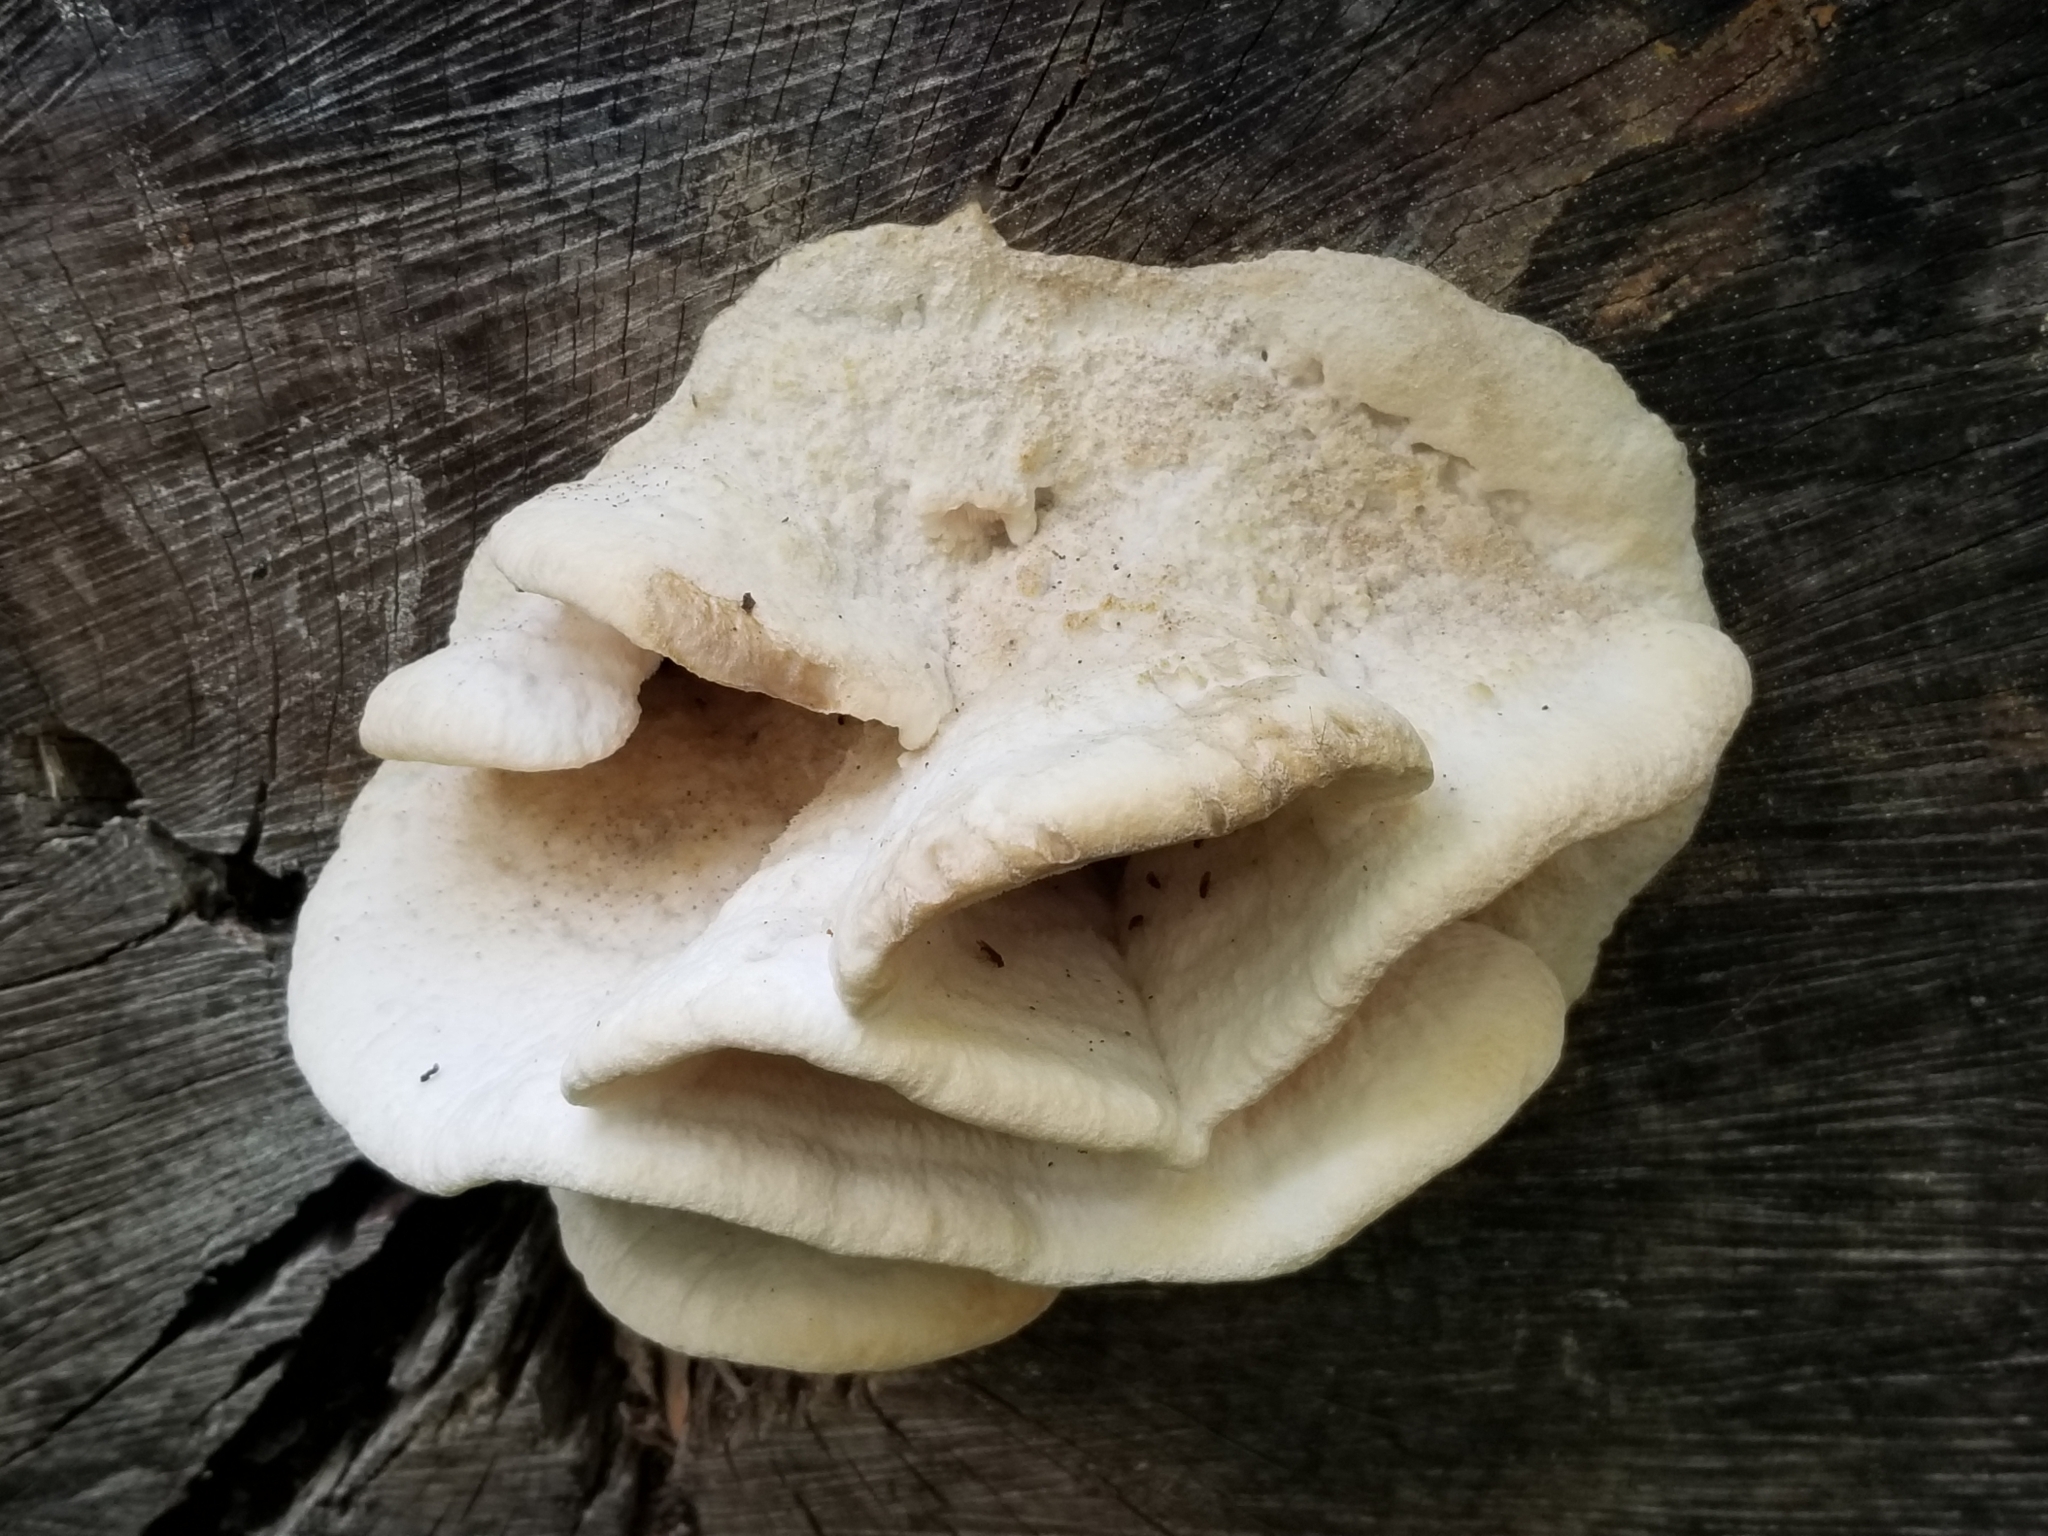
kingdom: Fungi
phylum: Basidiomycota
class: Agaricomycetes
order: Polyporales
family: Meruliaceae
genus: Climacodon
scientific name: Climacodon septentrionalis
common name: Northern tooth
